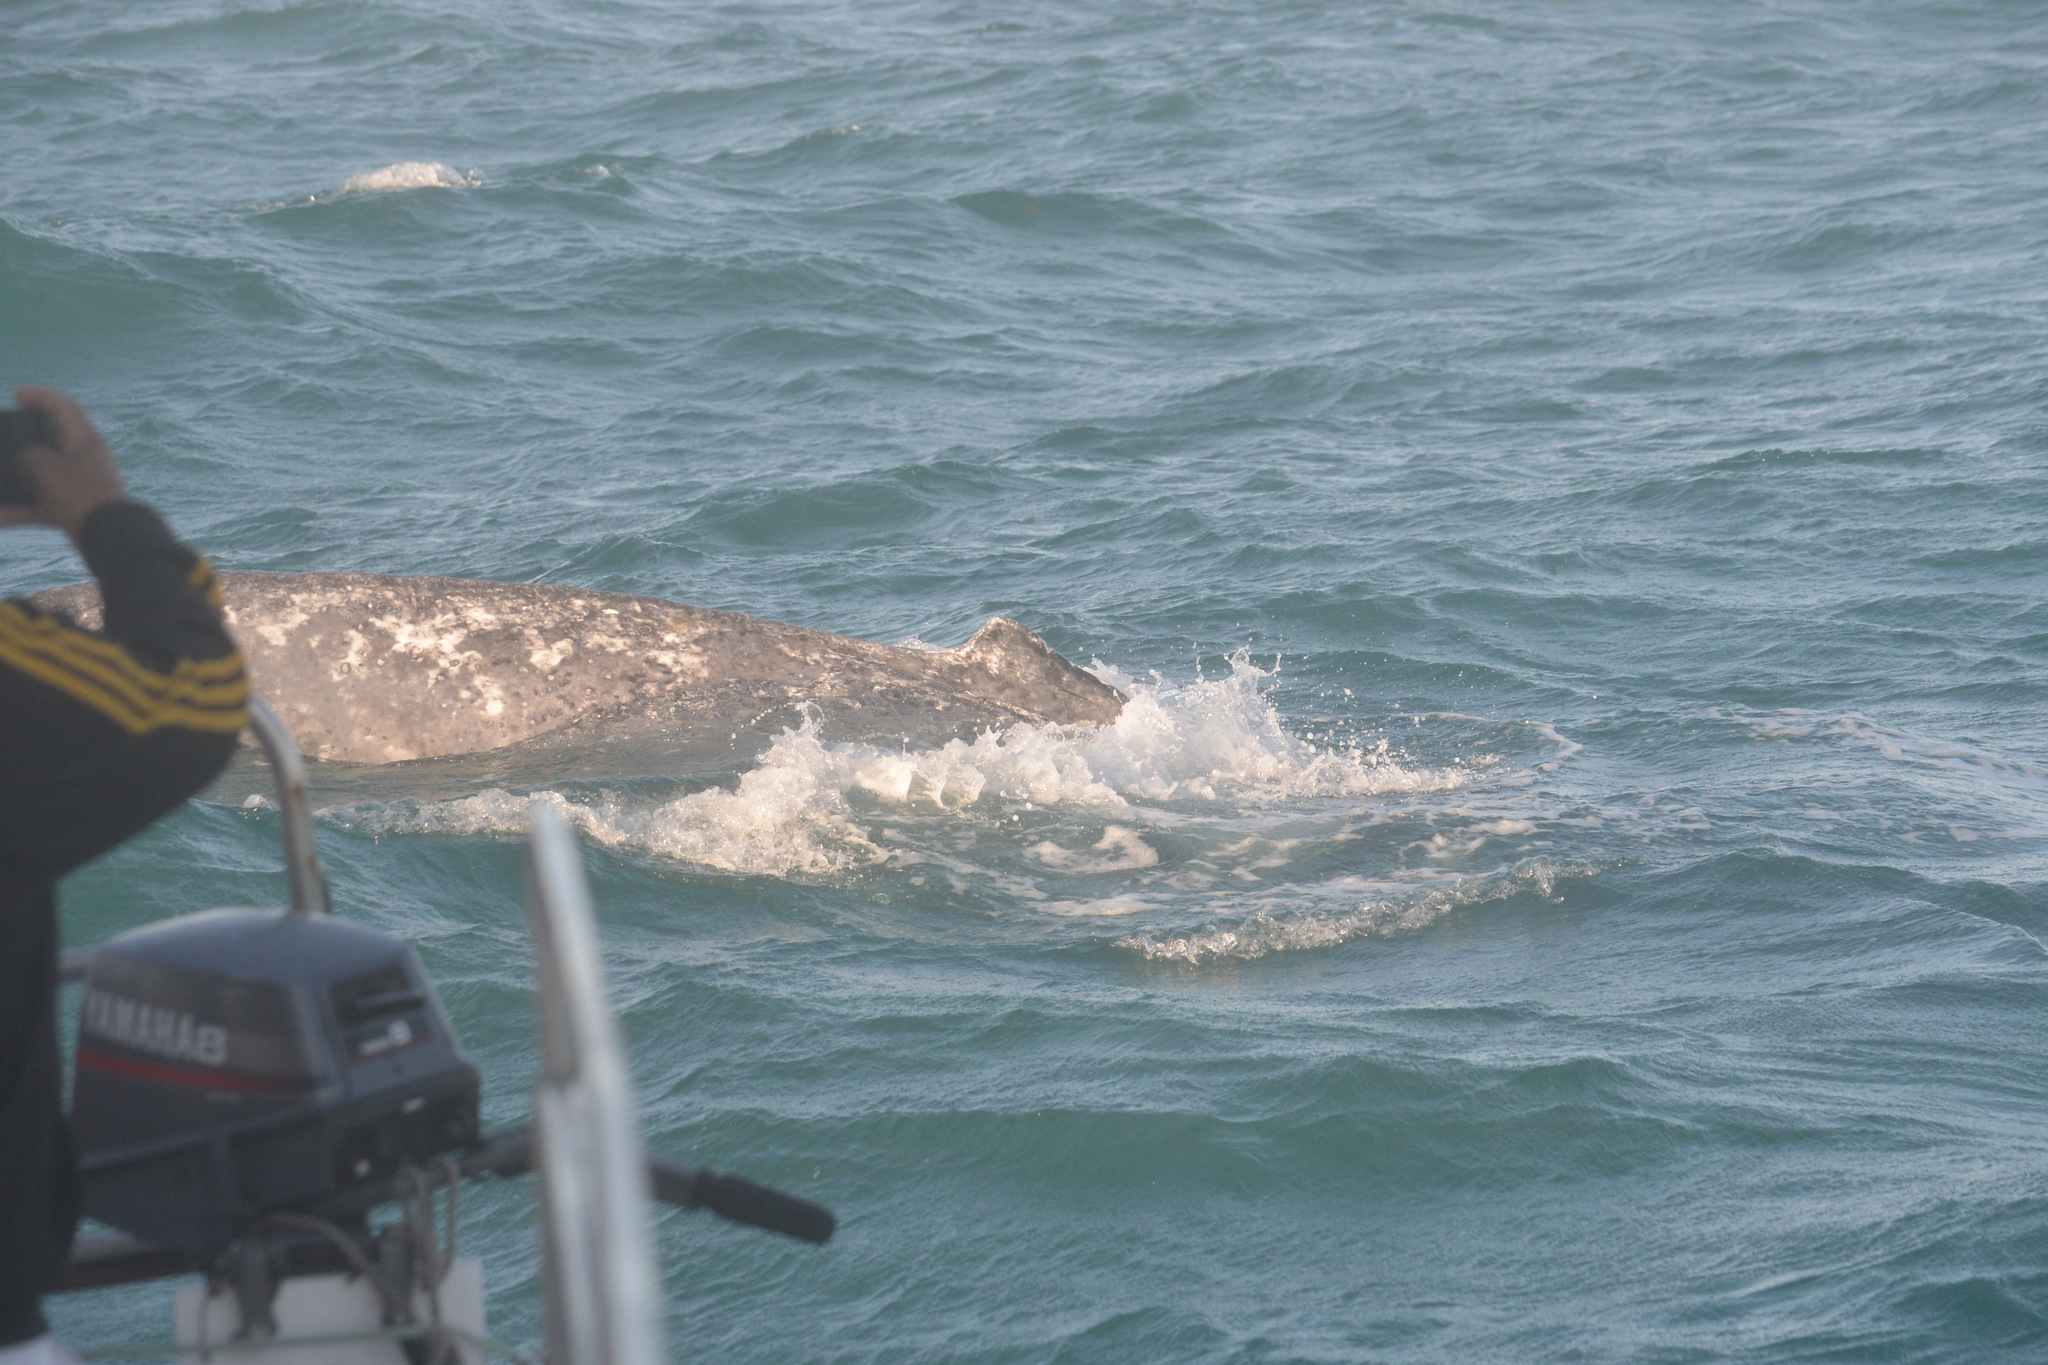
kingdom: Animalia
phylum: Chordata
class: Mammalia
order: Cetacea
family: Balaenopteridae
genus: Megaptera
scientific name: Megaptera novaeangliae
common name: Humpback whale
